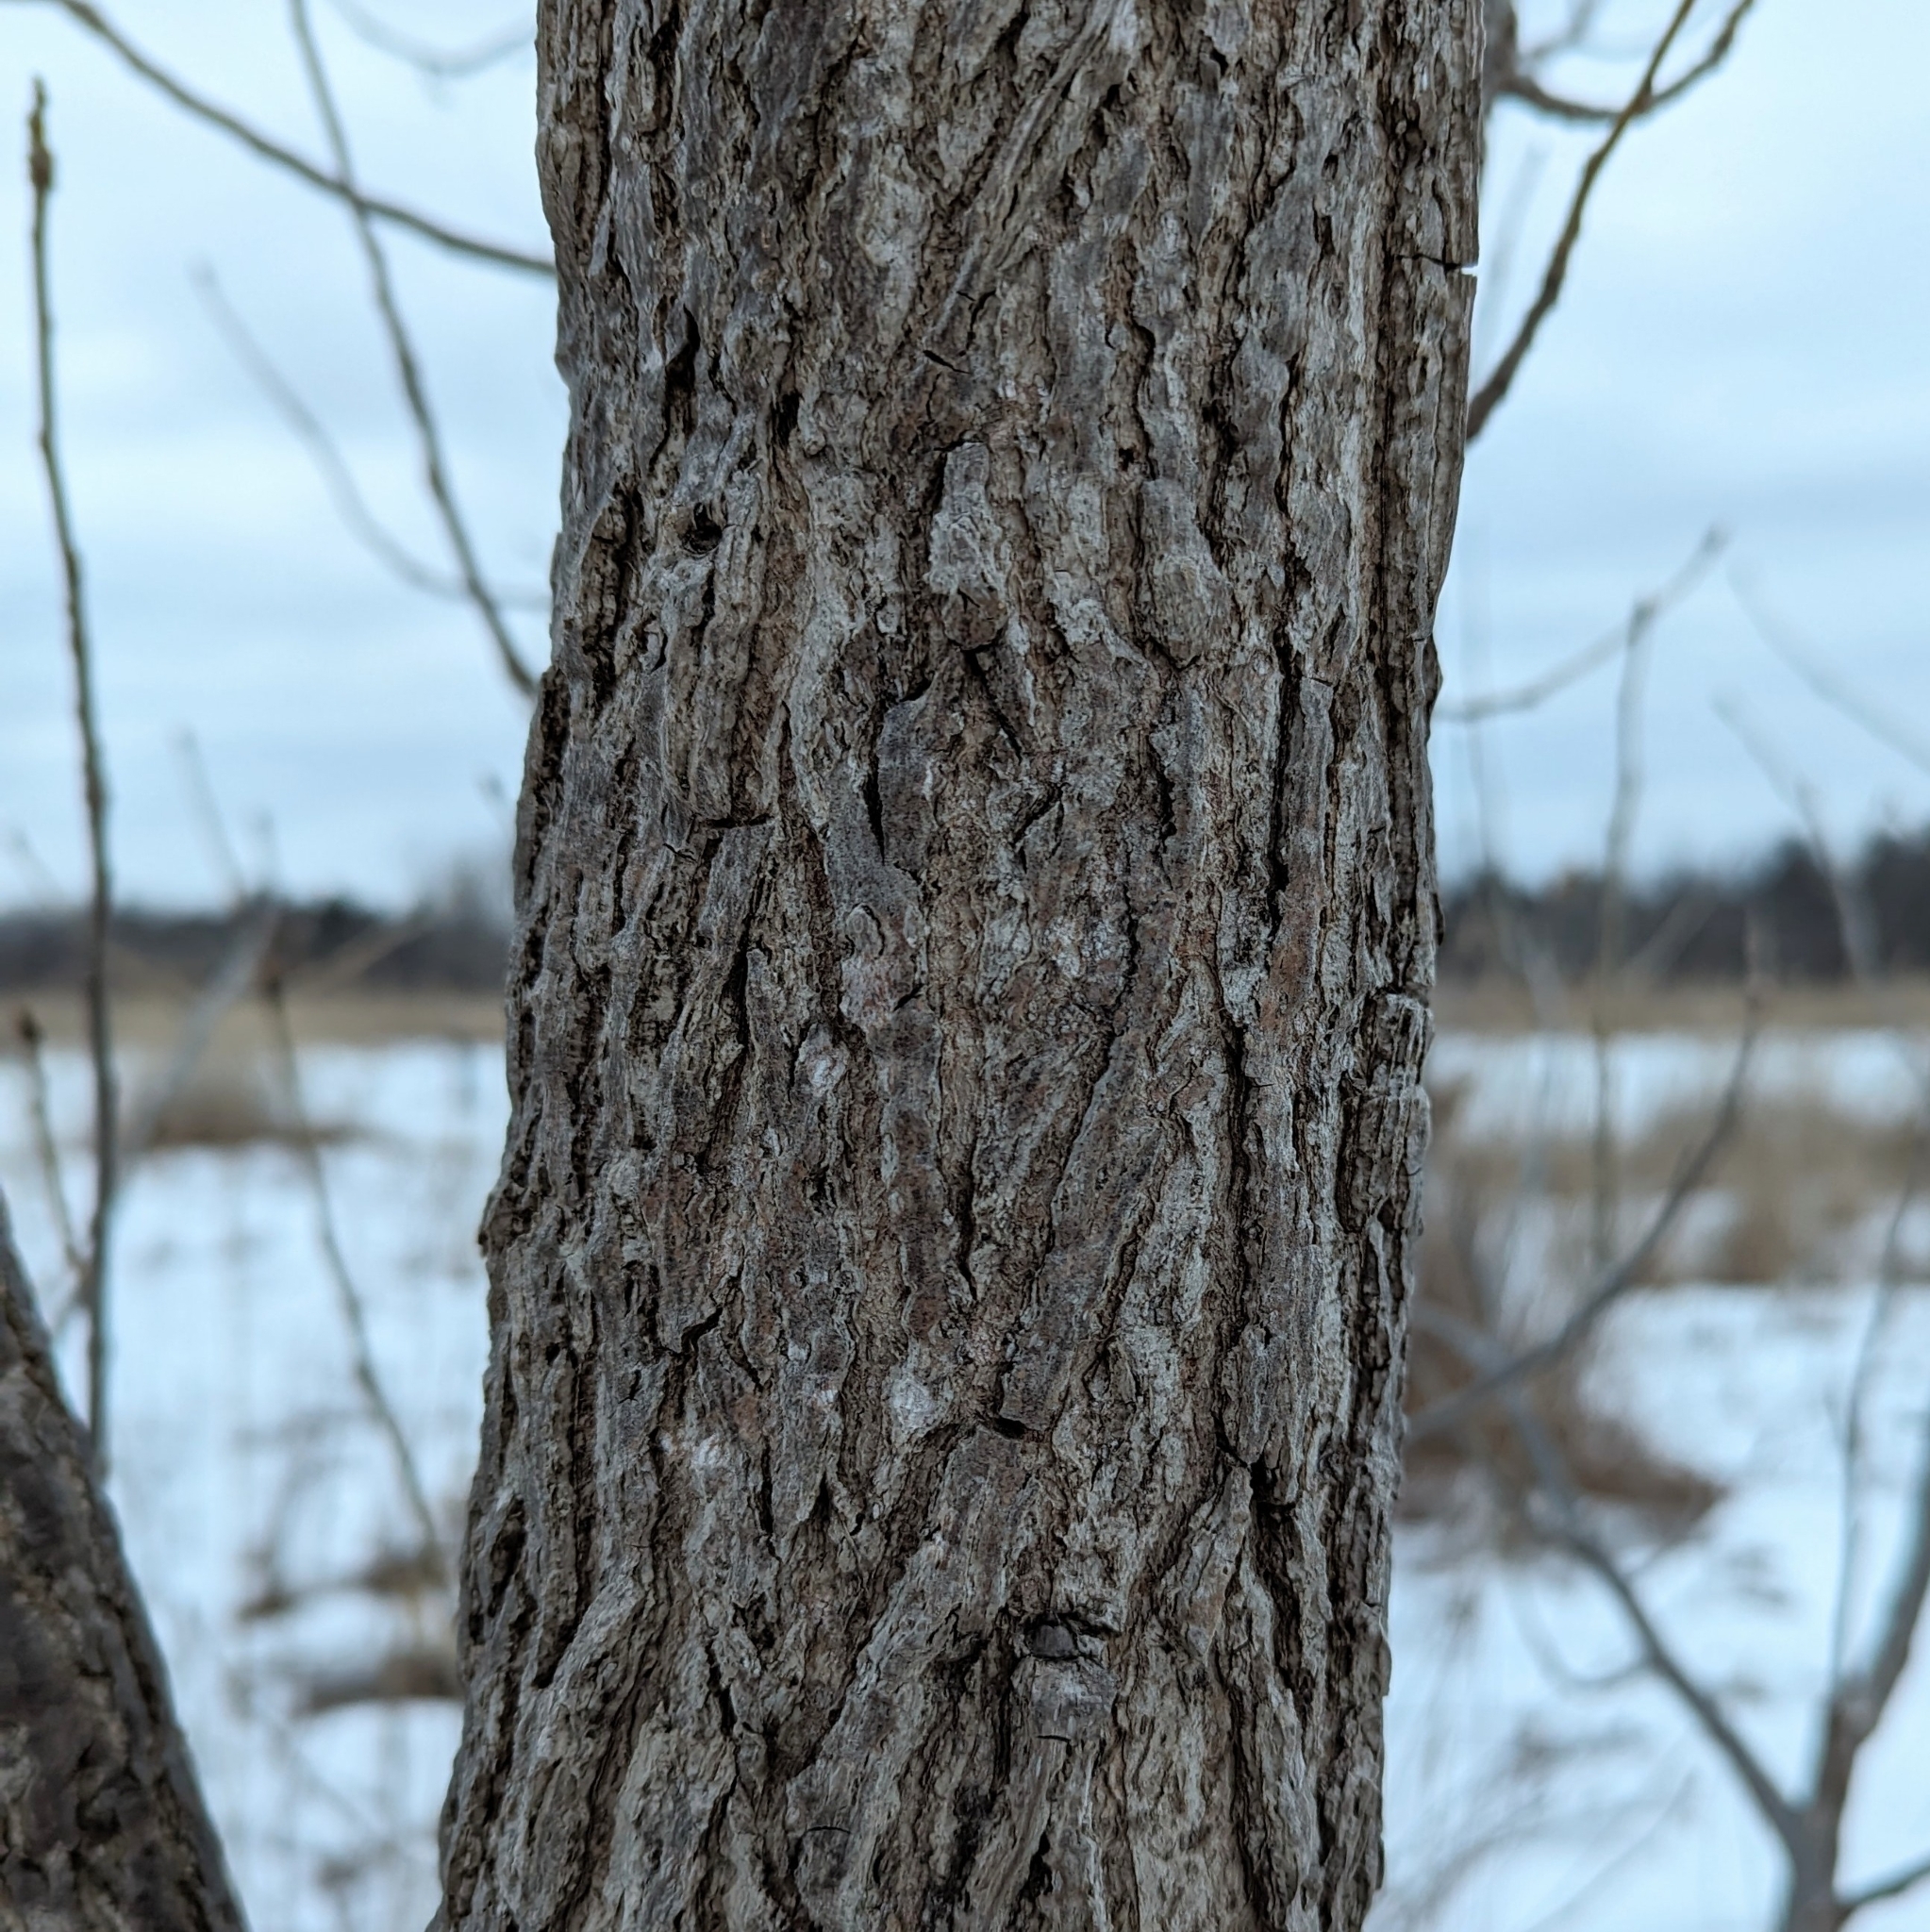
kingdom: Plantae
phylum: Tracheophyta
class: Magnoliopsida
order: Malpighiales
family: Salicaceae
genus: Populus
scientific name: Populus deltoides
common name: Eastern cottonwood
